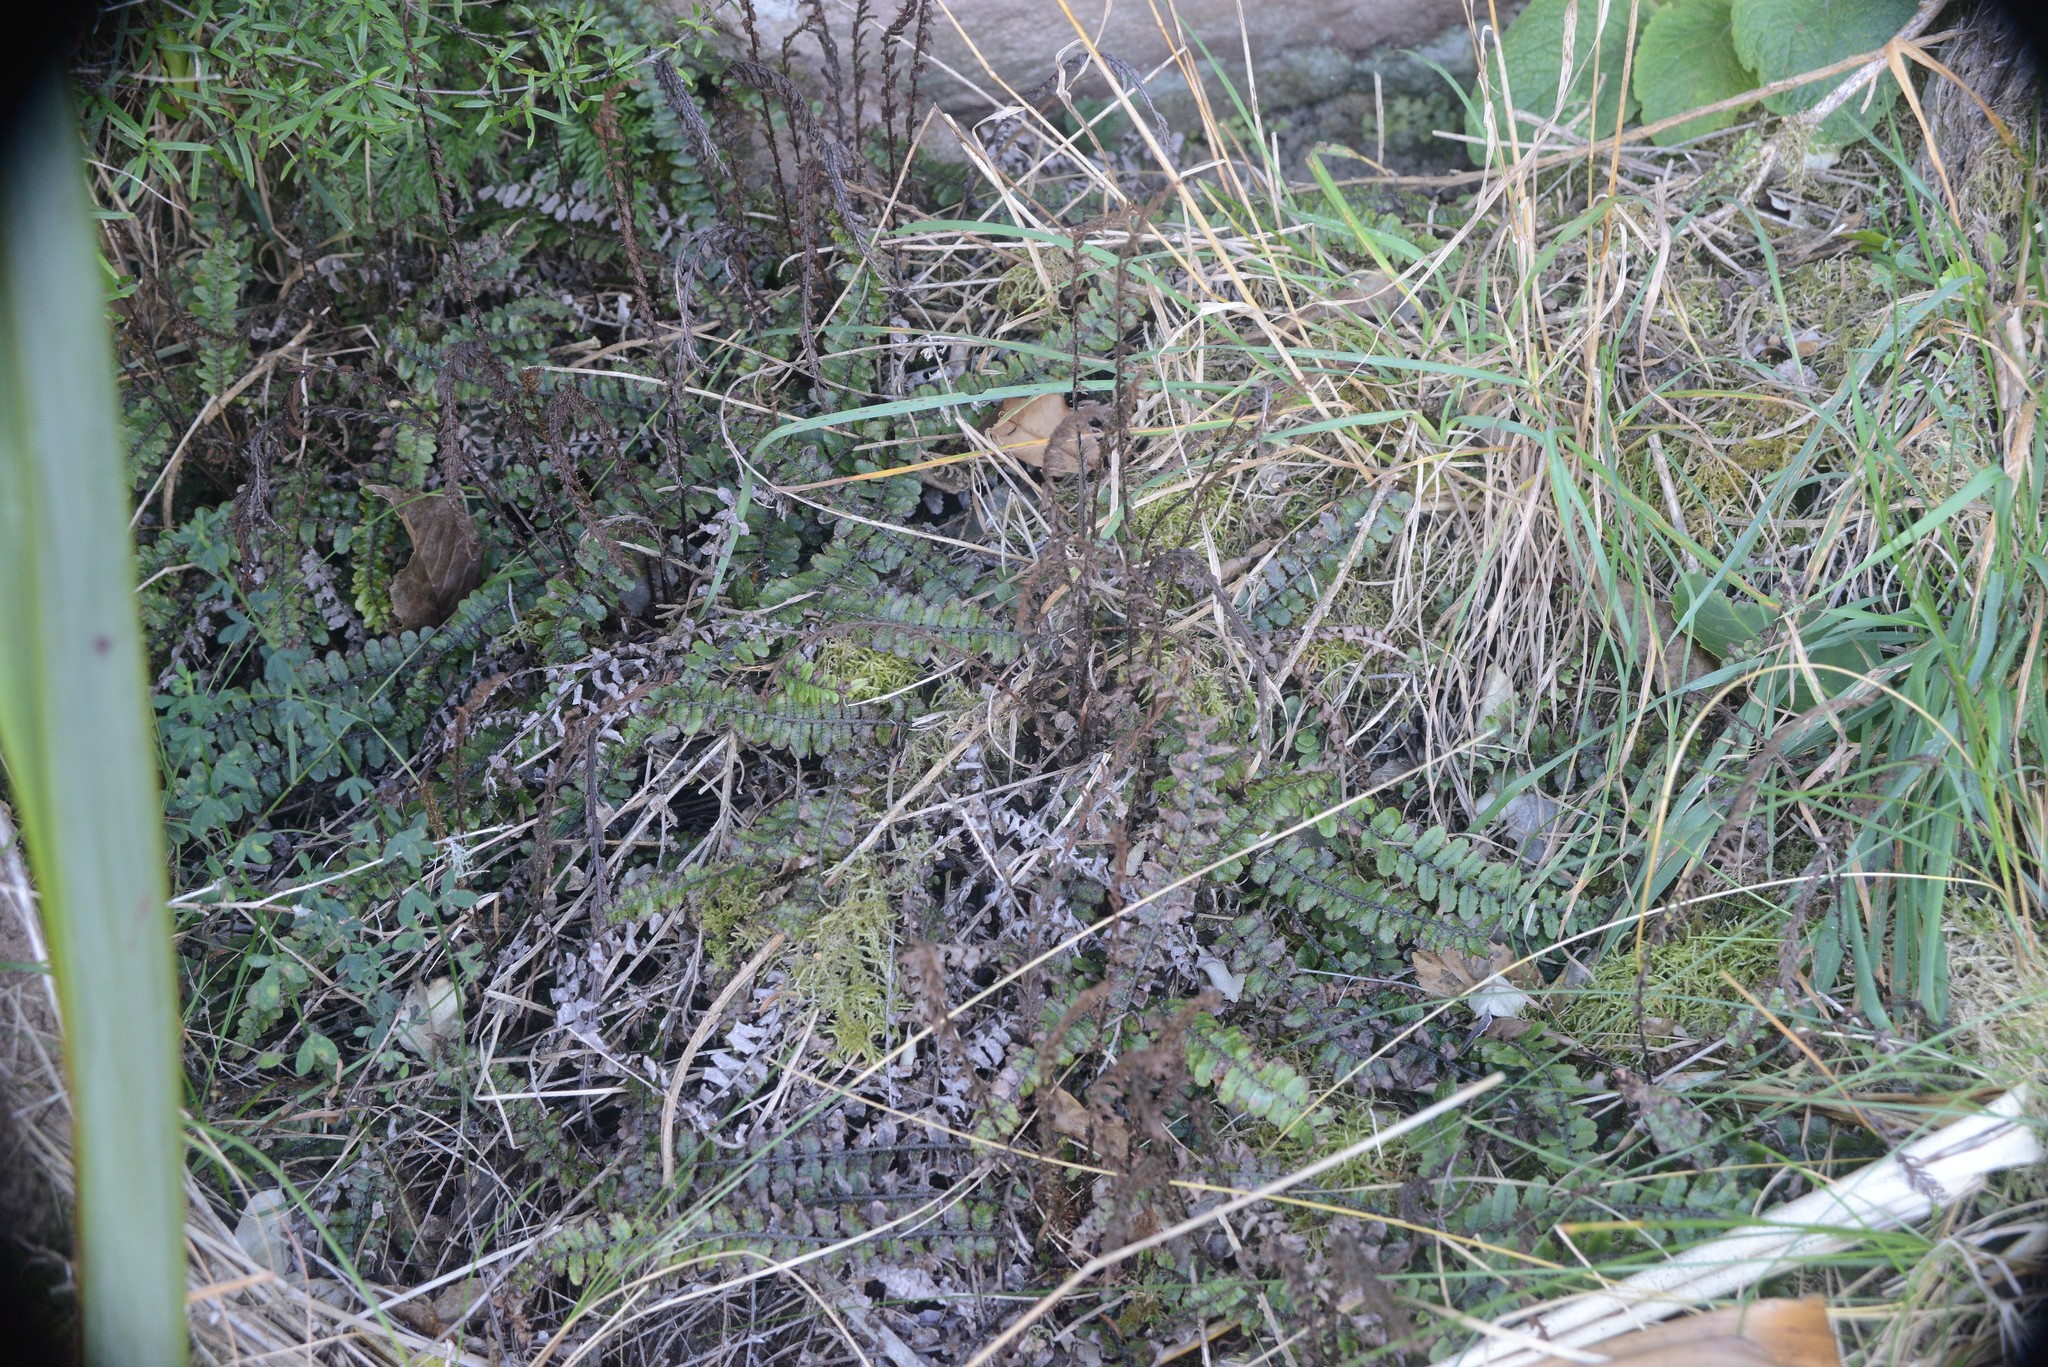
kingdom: Plantae
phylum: Tracheophyta
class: Polypodiopsida
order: Polypodiales
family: Blechnaceae
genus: Cranfillia
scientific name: Cranfillia fluviatilis
